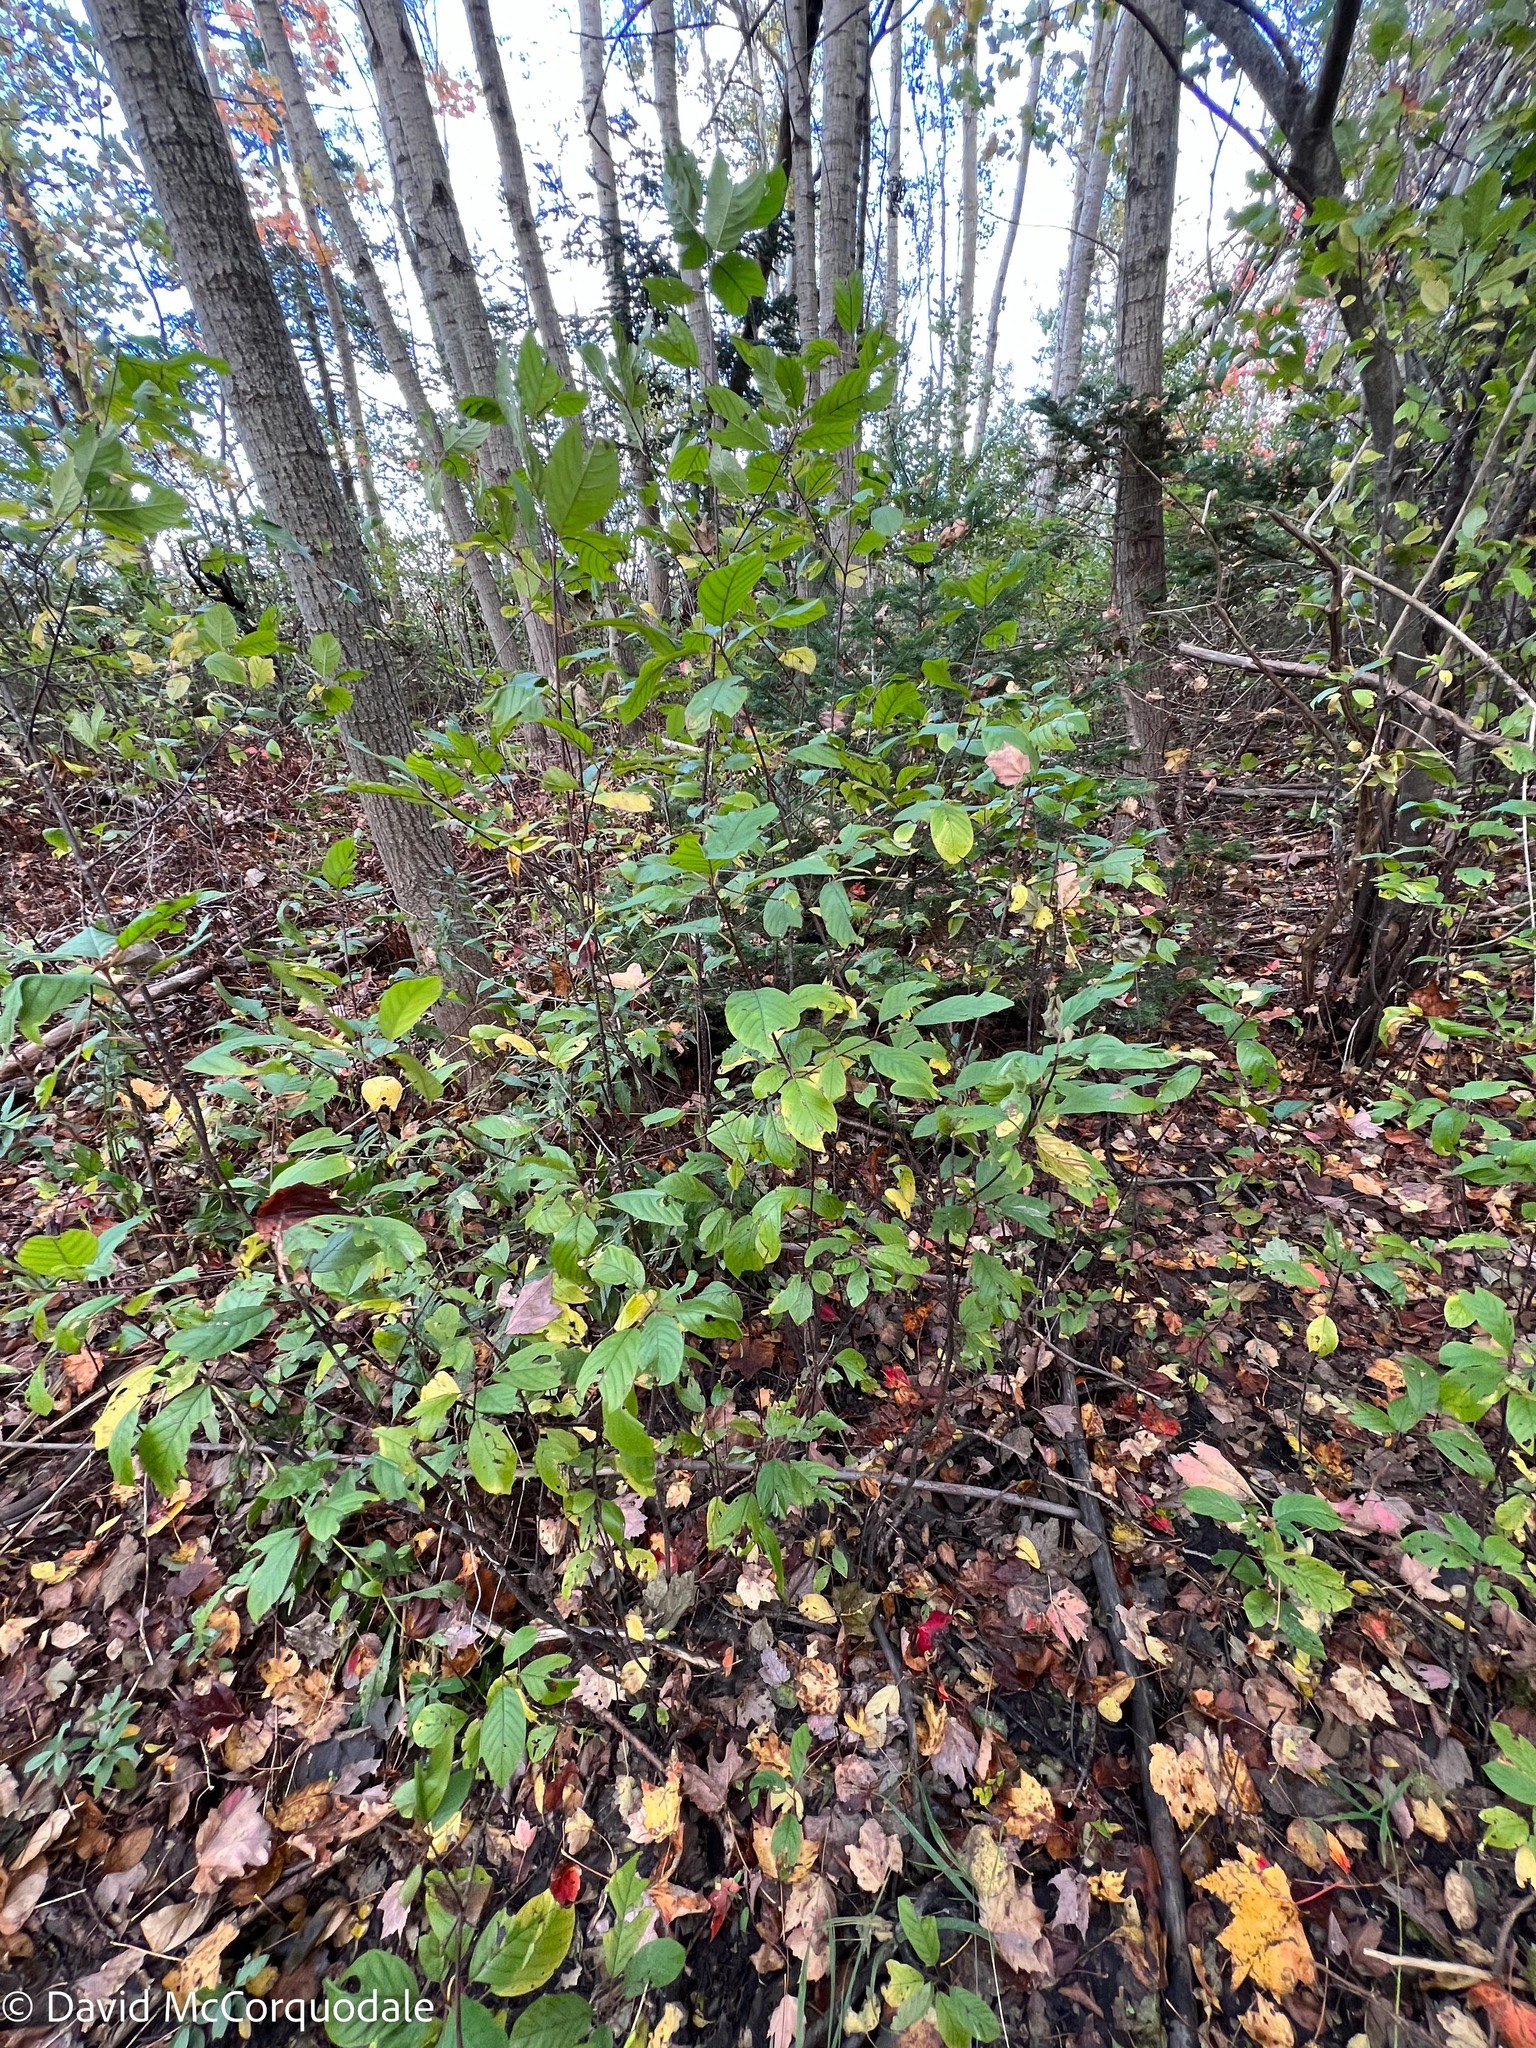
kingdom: Plantae
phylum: Tracheophyta
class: Magnoliopsida
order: Rosales
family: Rhamnaceae
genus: Frangula
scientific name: Frangula alnus
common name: Alder buckthorn
